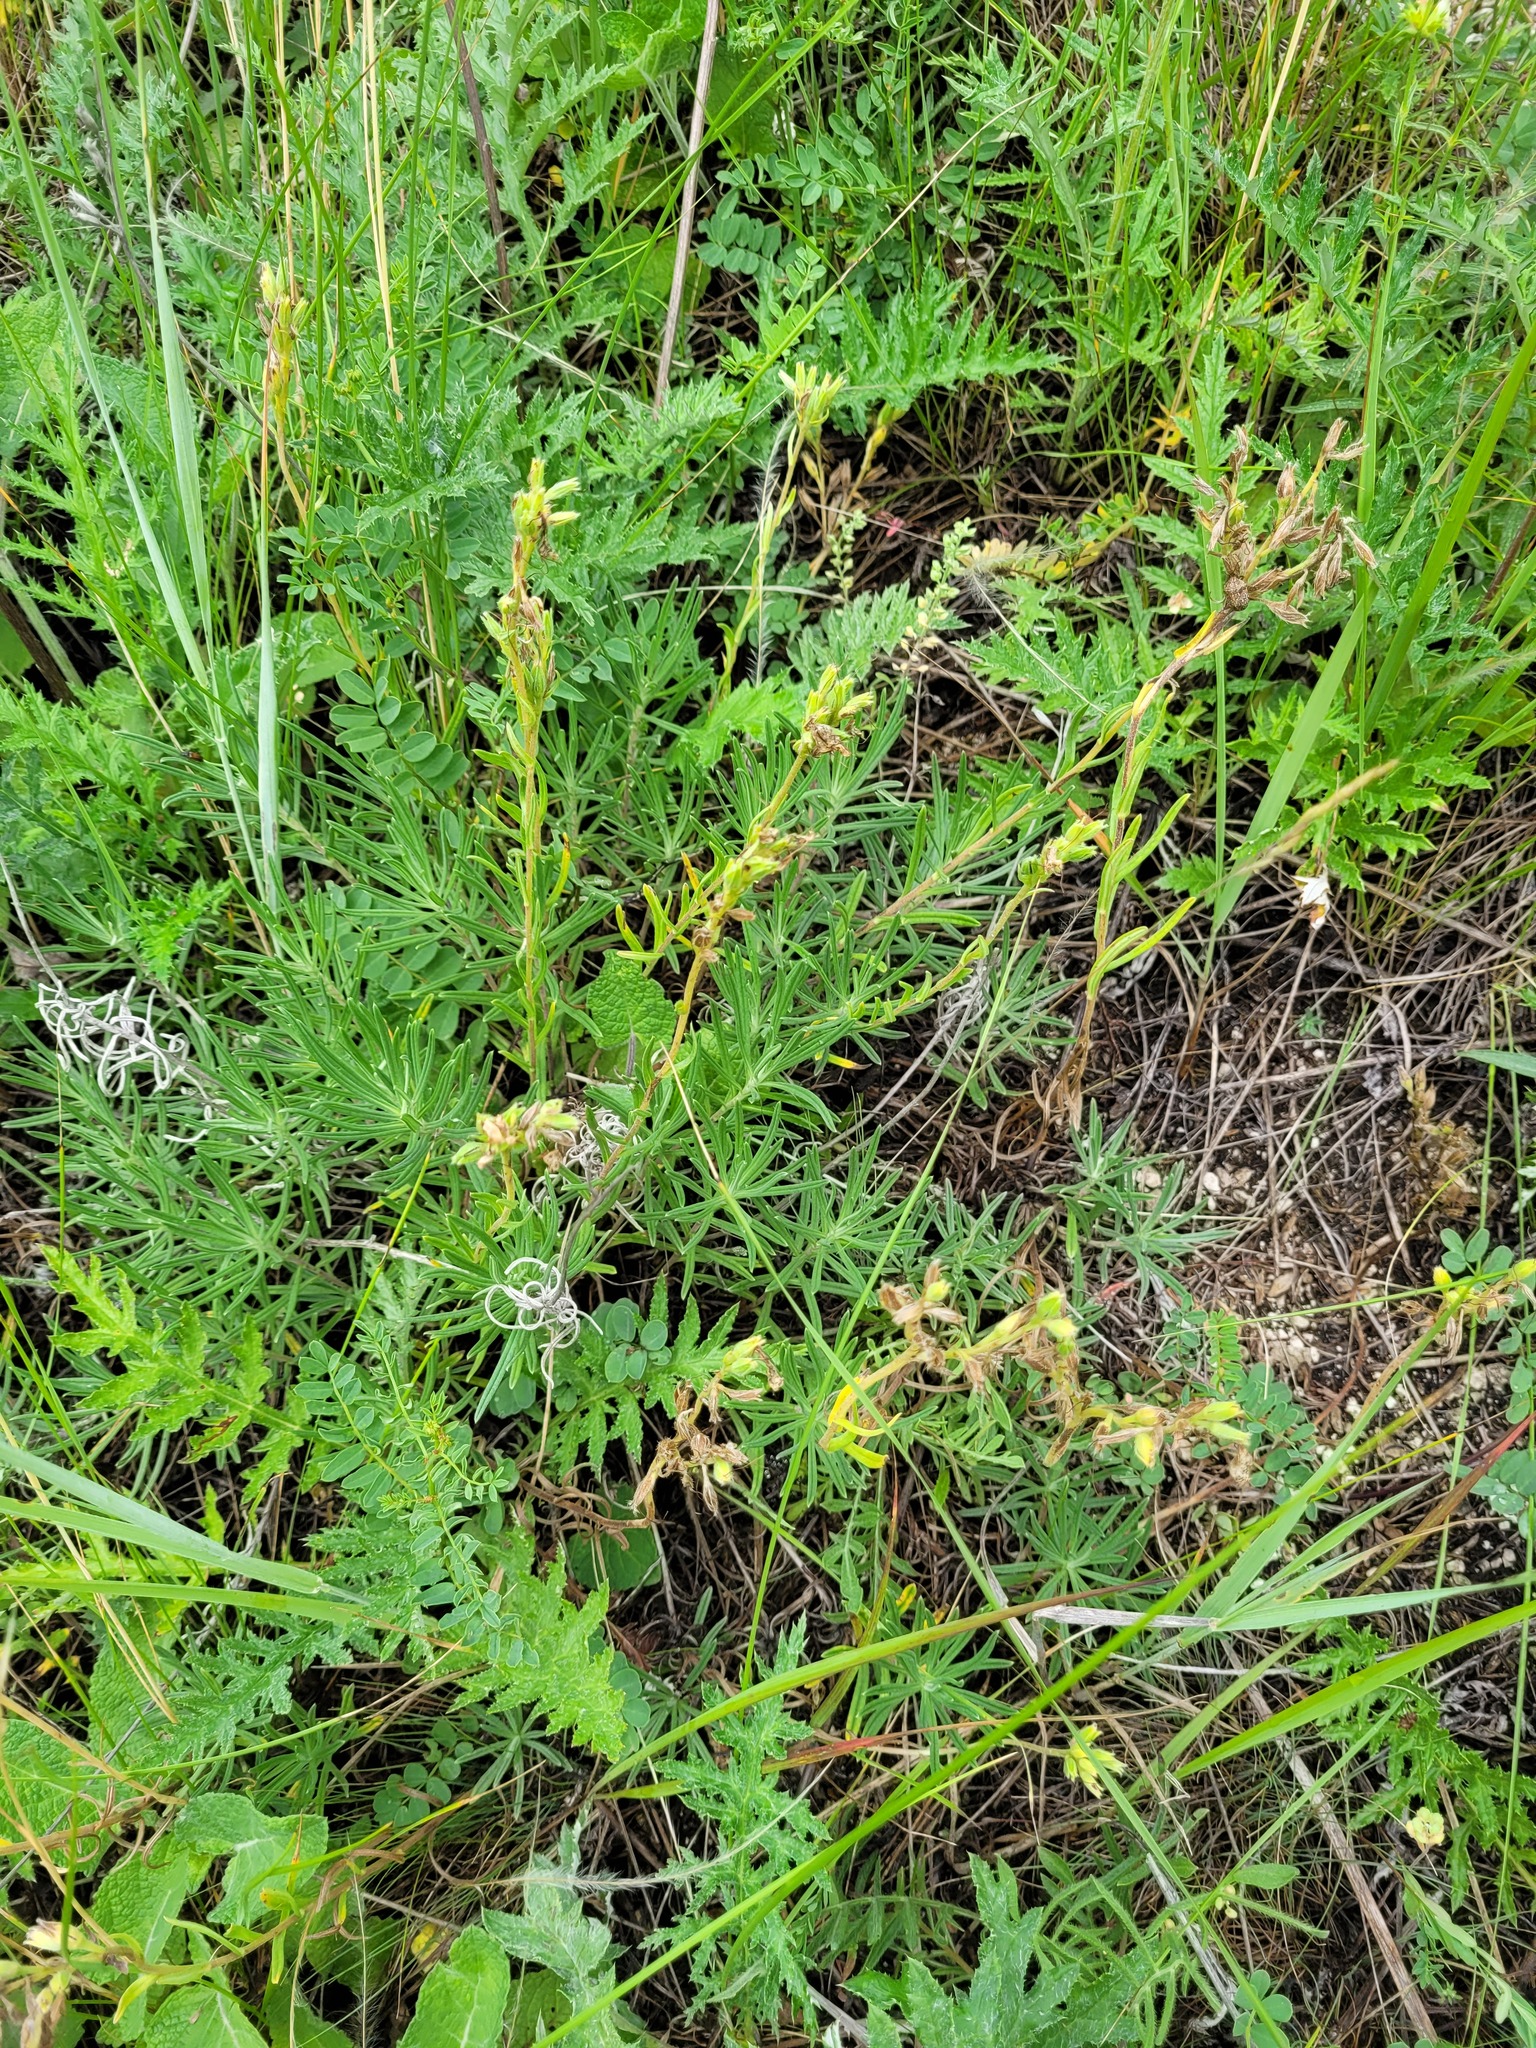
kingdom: Plantae
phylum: Tracheophyta
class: Magnoliopsida
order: Boraginales
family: Boraginaceae
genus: Onosma
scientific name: Onosma simplicissima
